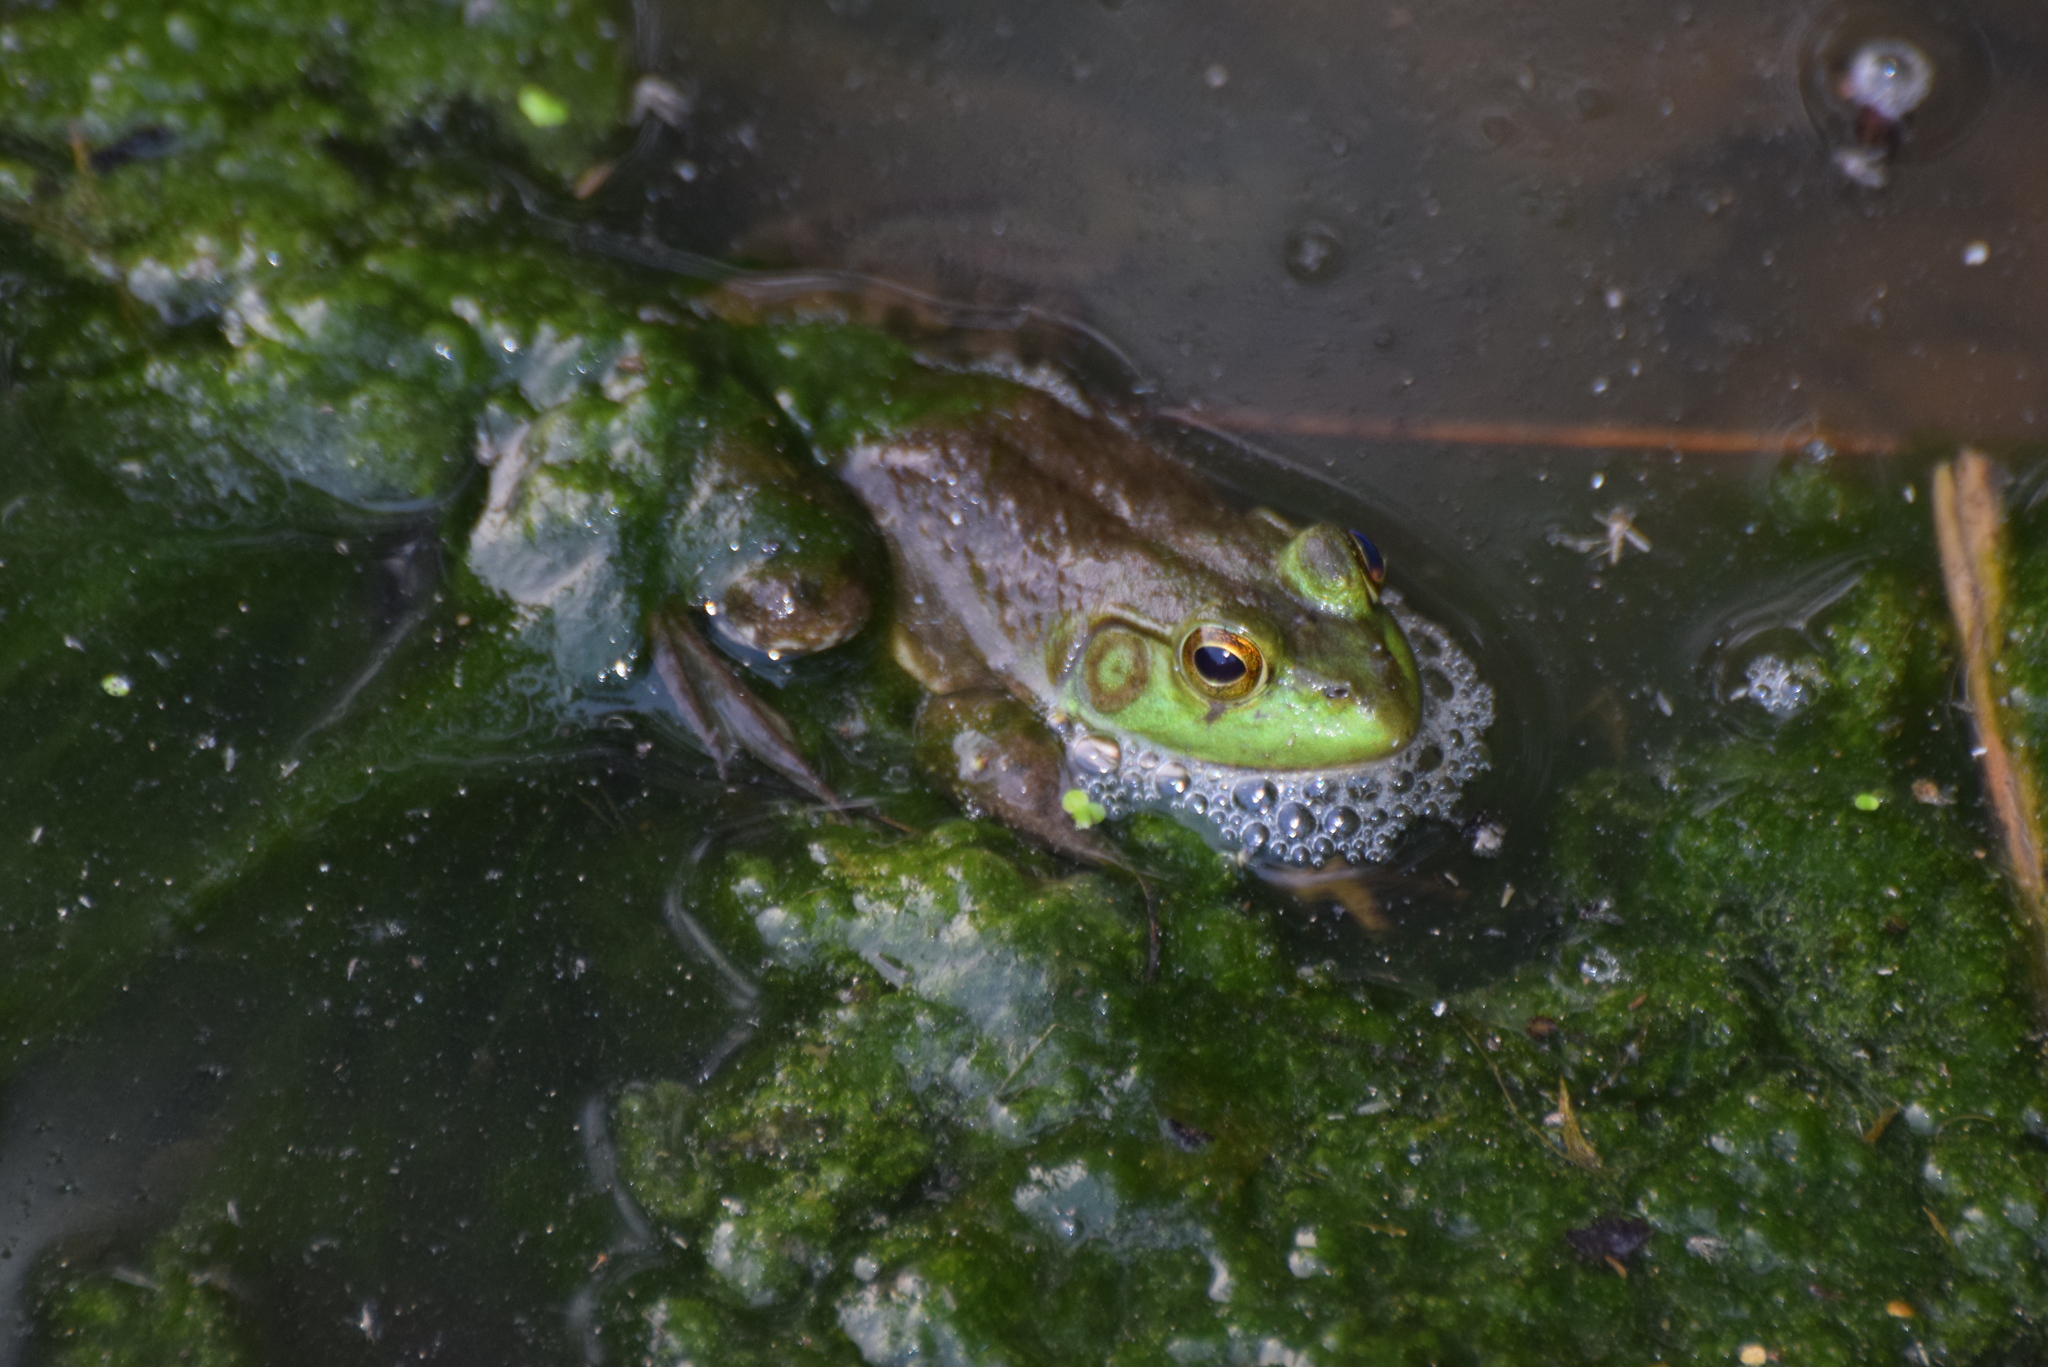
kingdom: Animalia
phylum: Chordata
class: Amphibia
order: Anura
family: Ranidae
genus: Lithobates
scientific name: Lithobates catesbeianus
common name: American bullfrog
